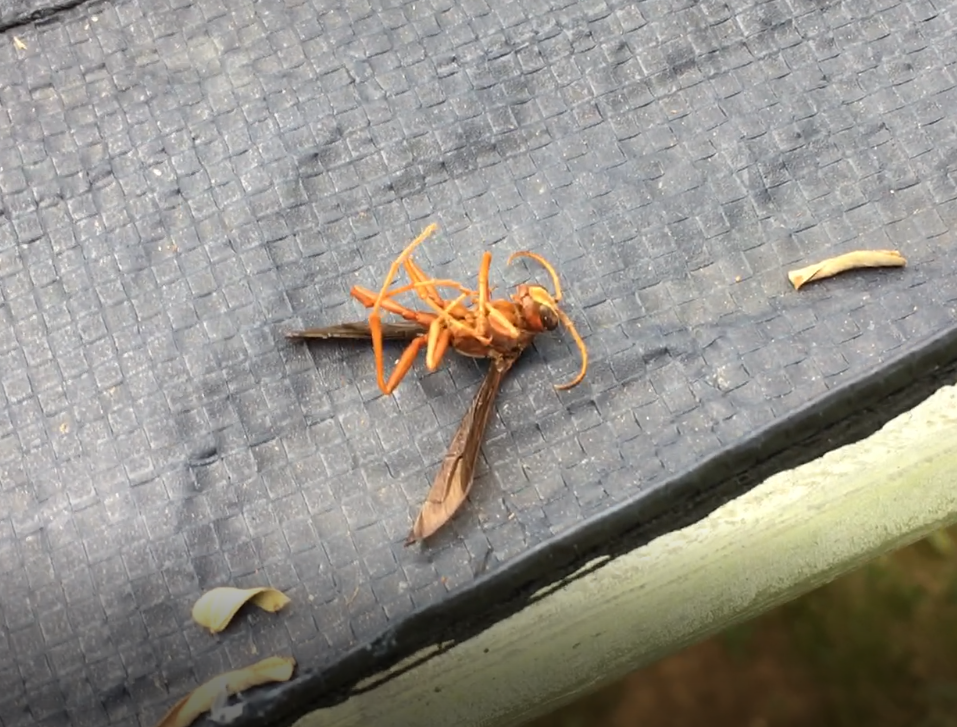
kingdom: Animalia
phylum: Arthropoda
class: Insecta
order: Hymenoptera
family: Eumenidae
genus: Polistes
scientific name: Polistes carolina
